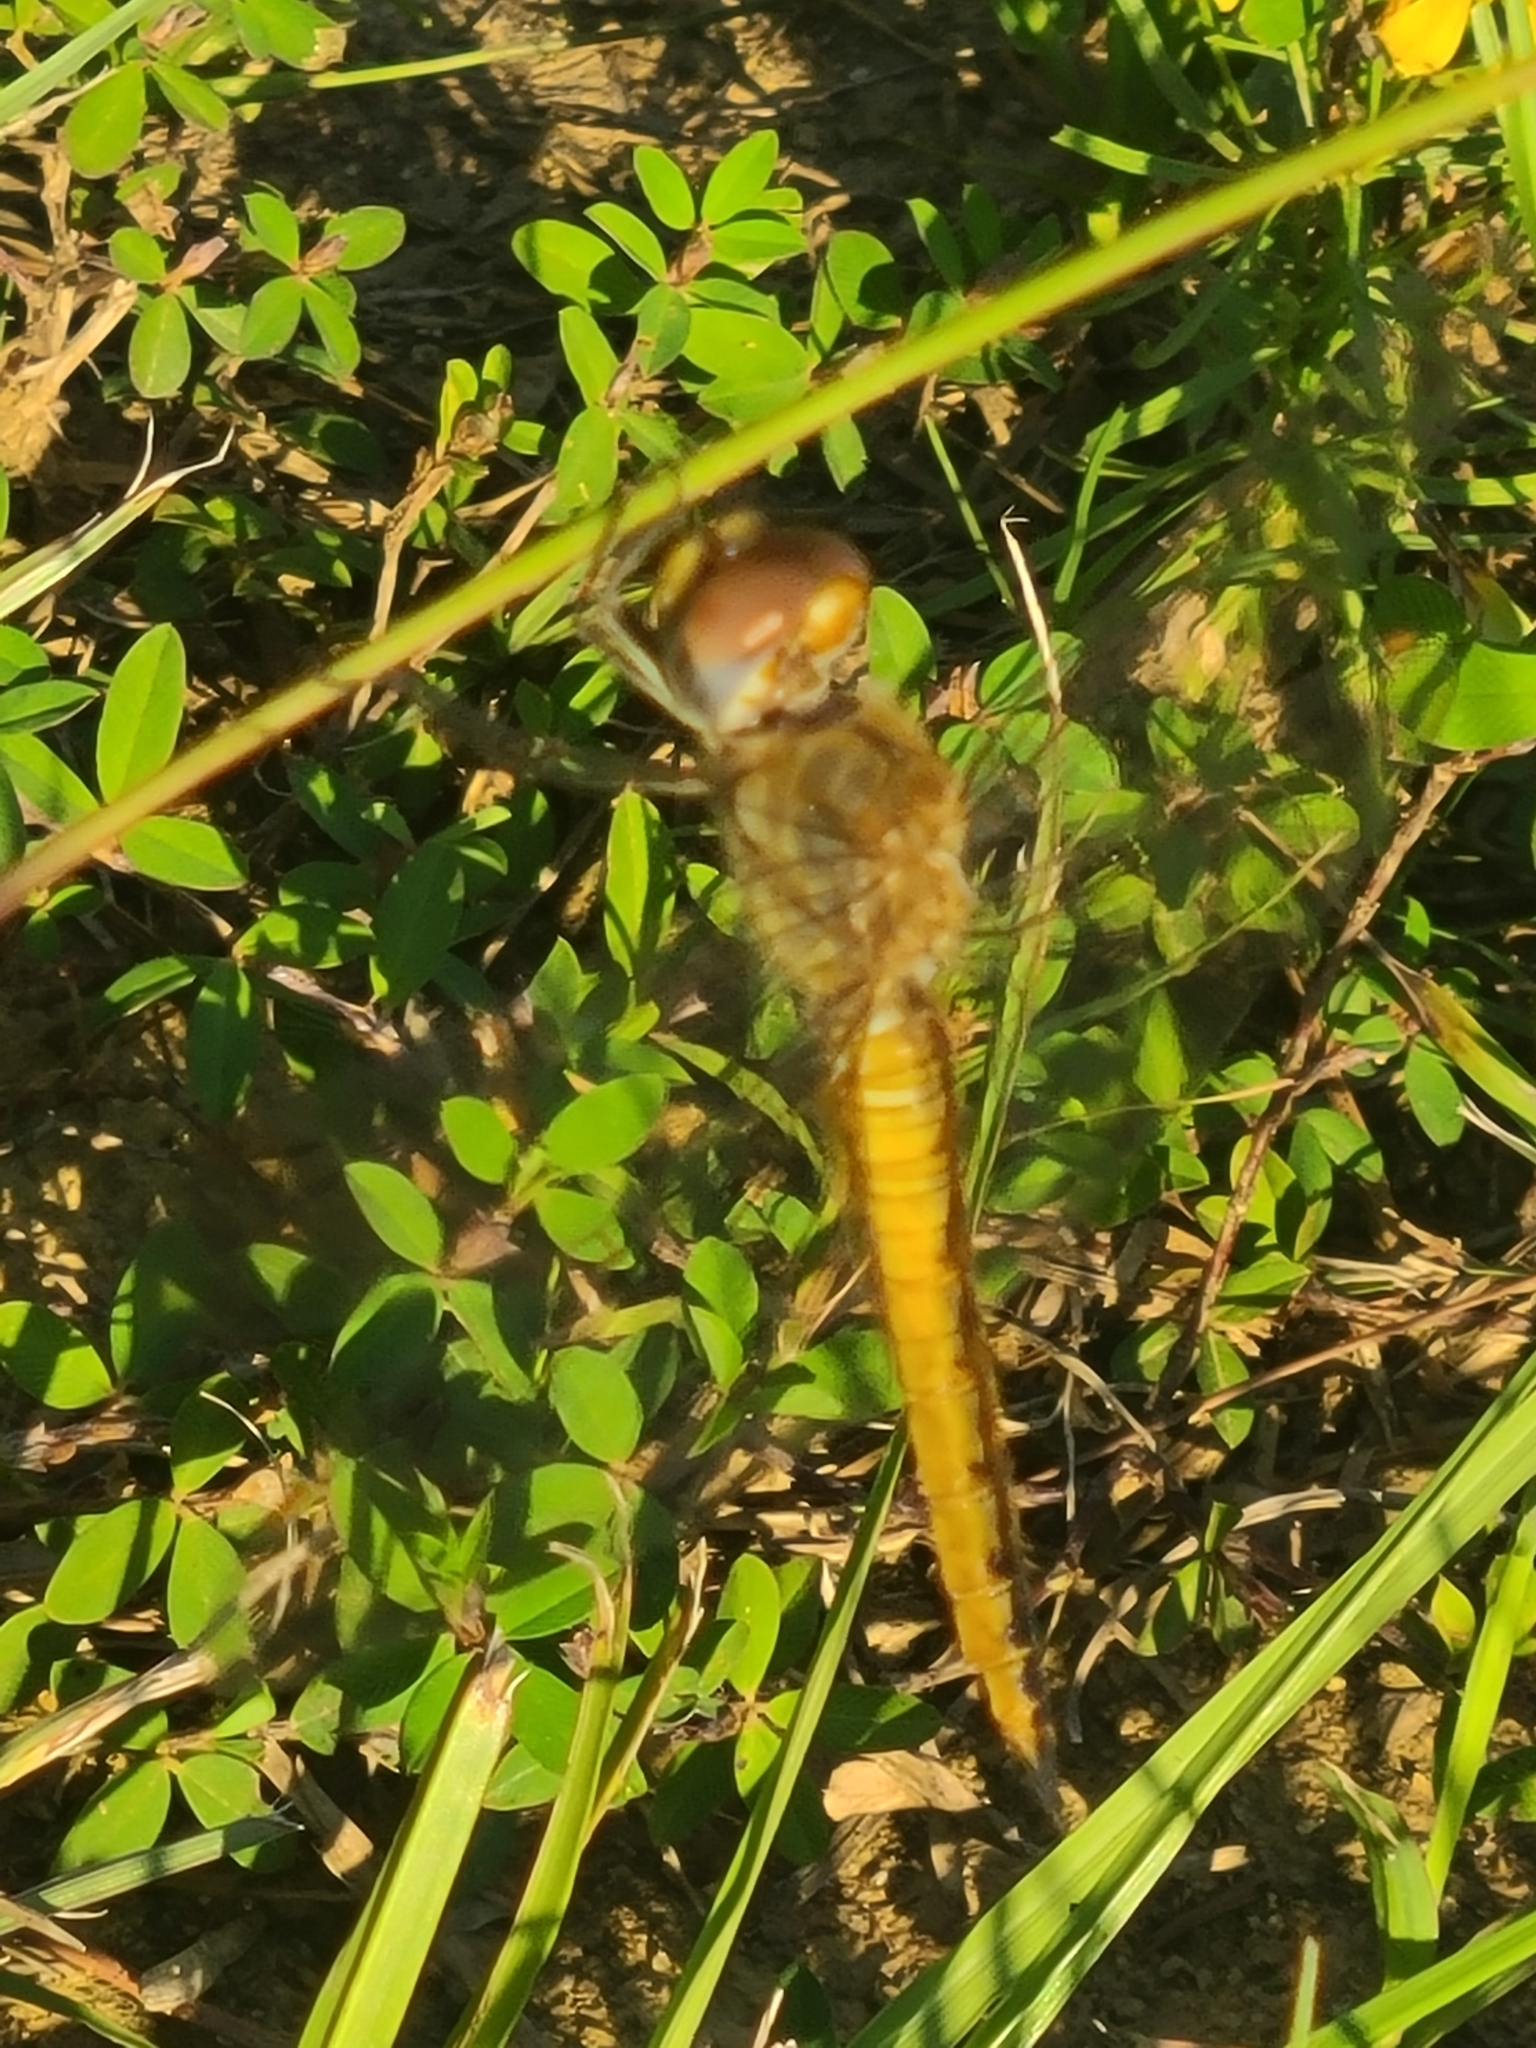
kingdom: Animalia
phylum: Arthropoda
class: Insecta
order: Odonata
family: Libellulidae
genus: Pantala
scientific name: Pantala flavescens
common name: Wandering glider
